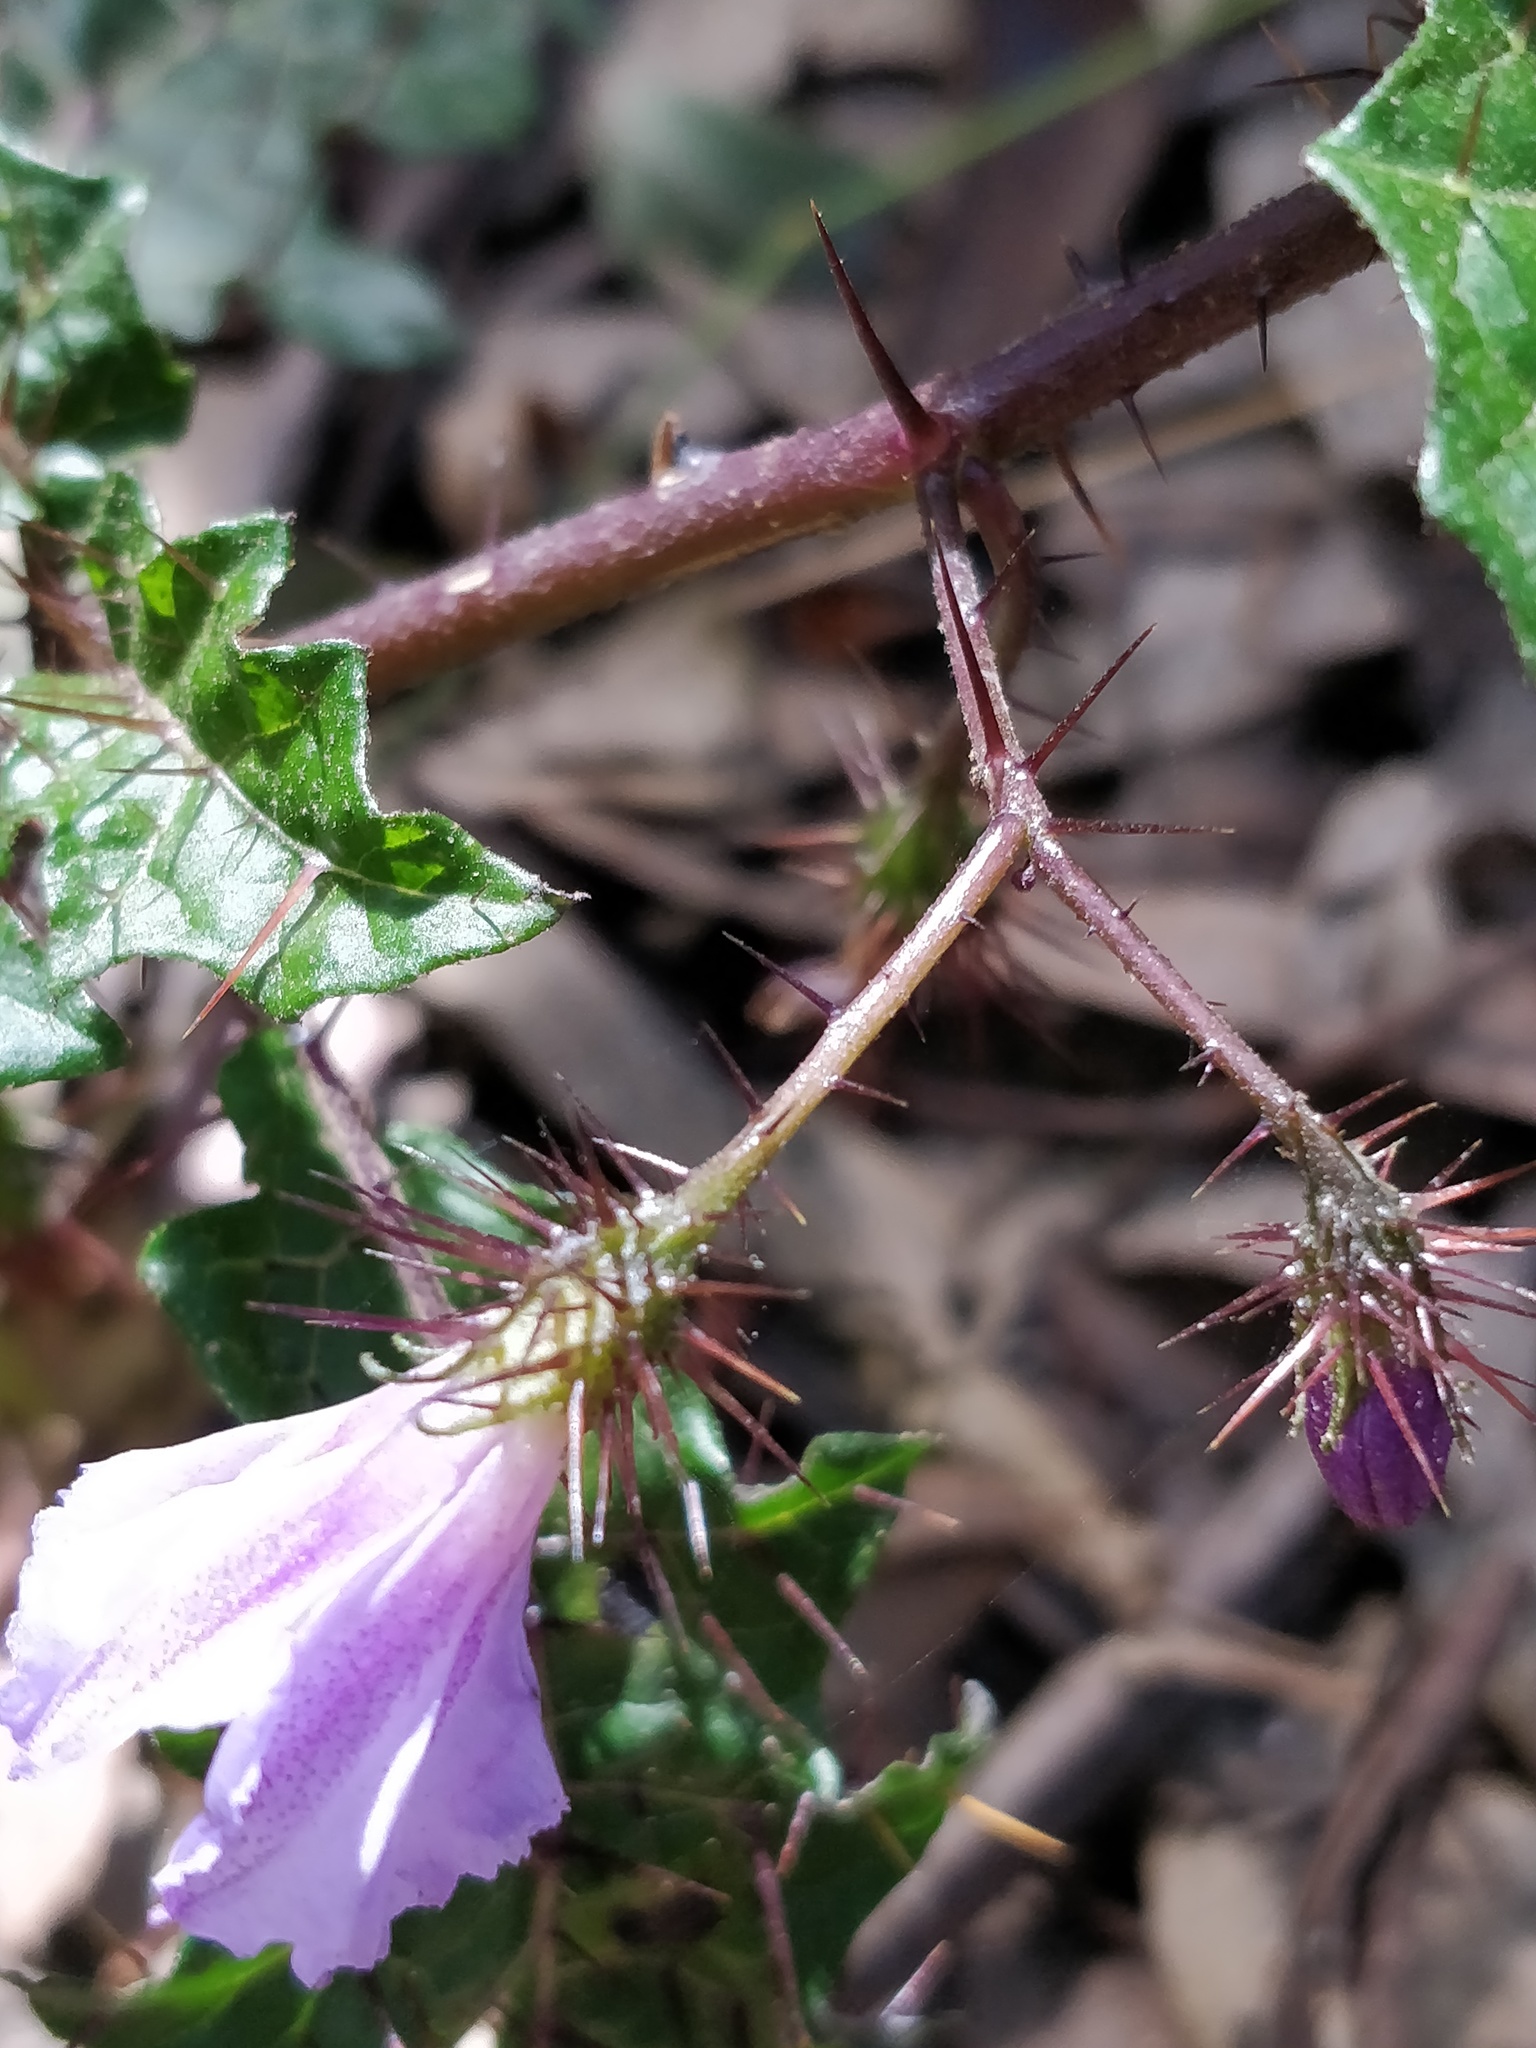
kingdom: Plantae
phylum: Tracheophyta
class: Magnoliopsida
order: Solanales
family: Solanaceae
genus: Solanum
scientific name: Solanum prinophyllum
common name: Forest nightshade
